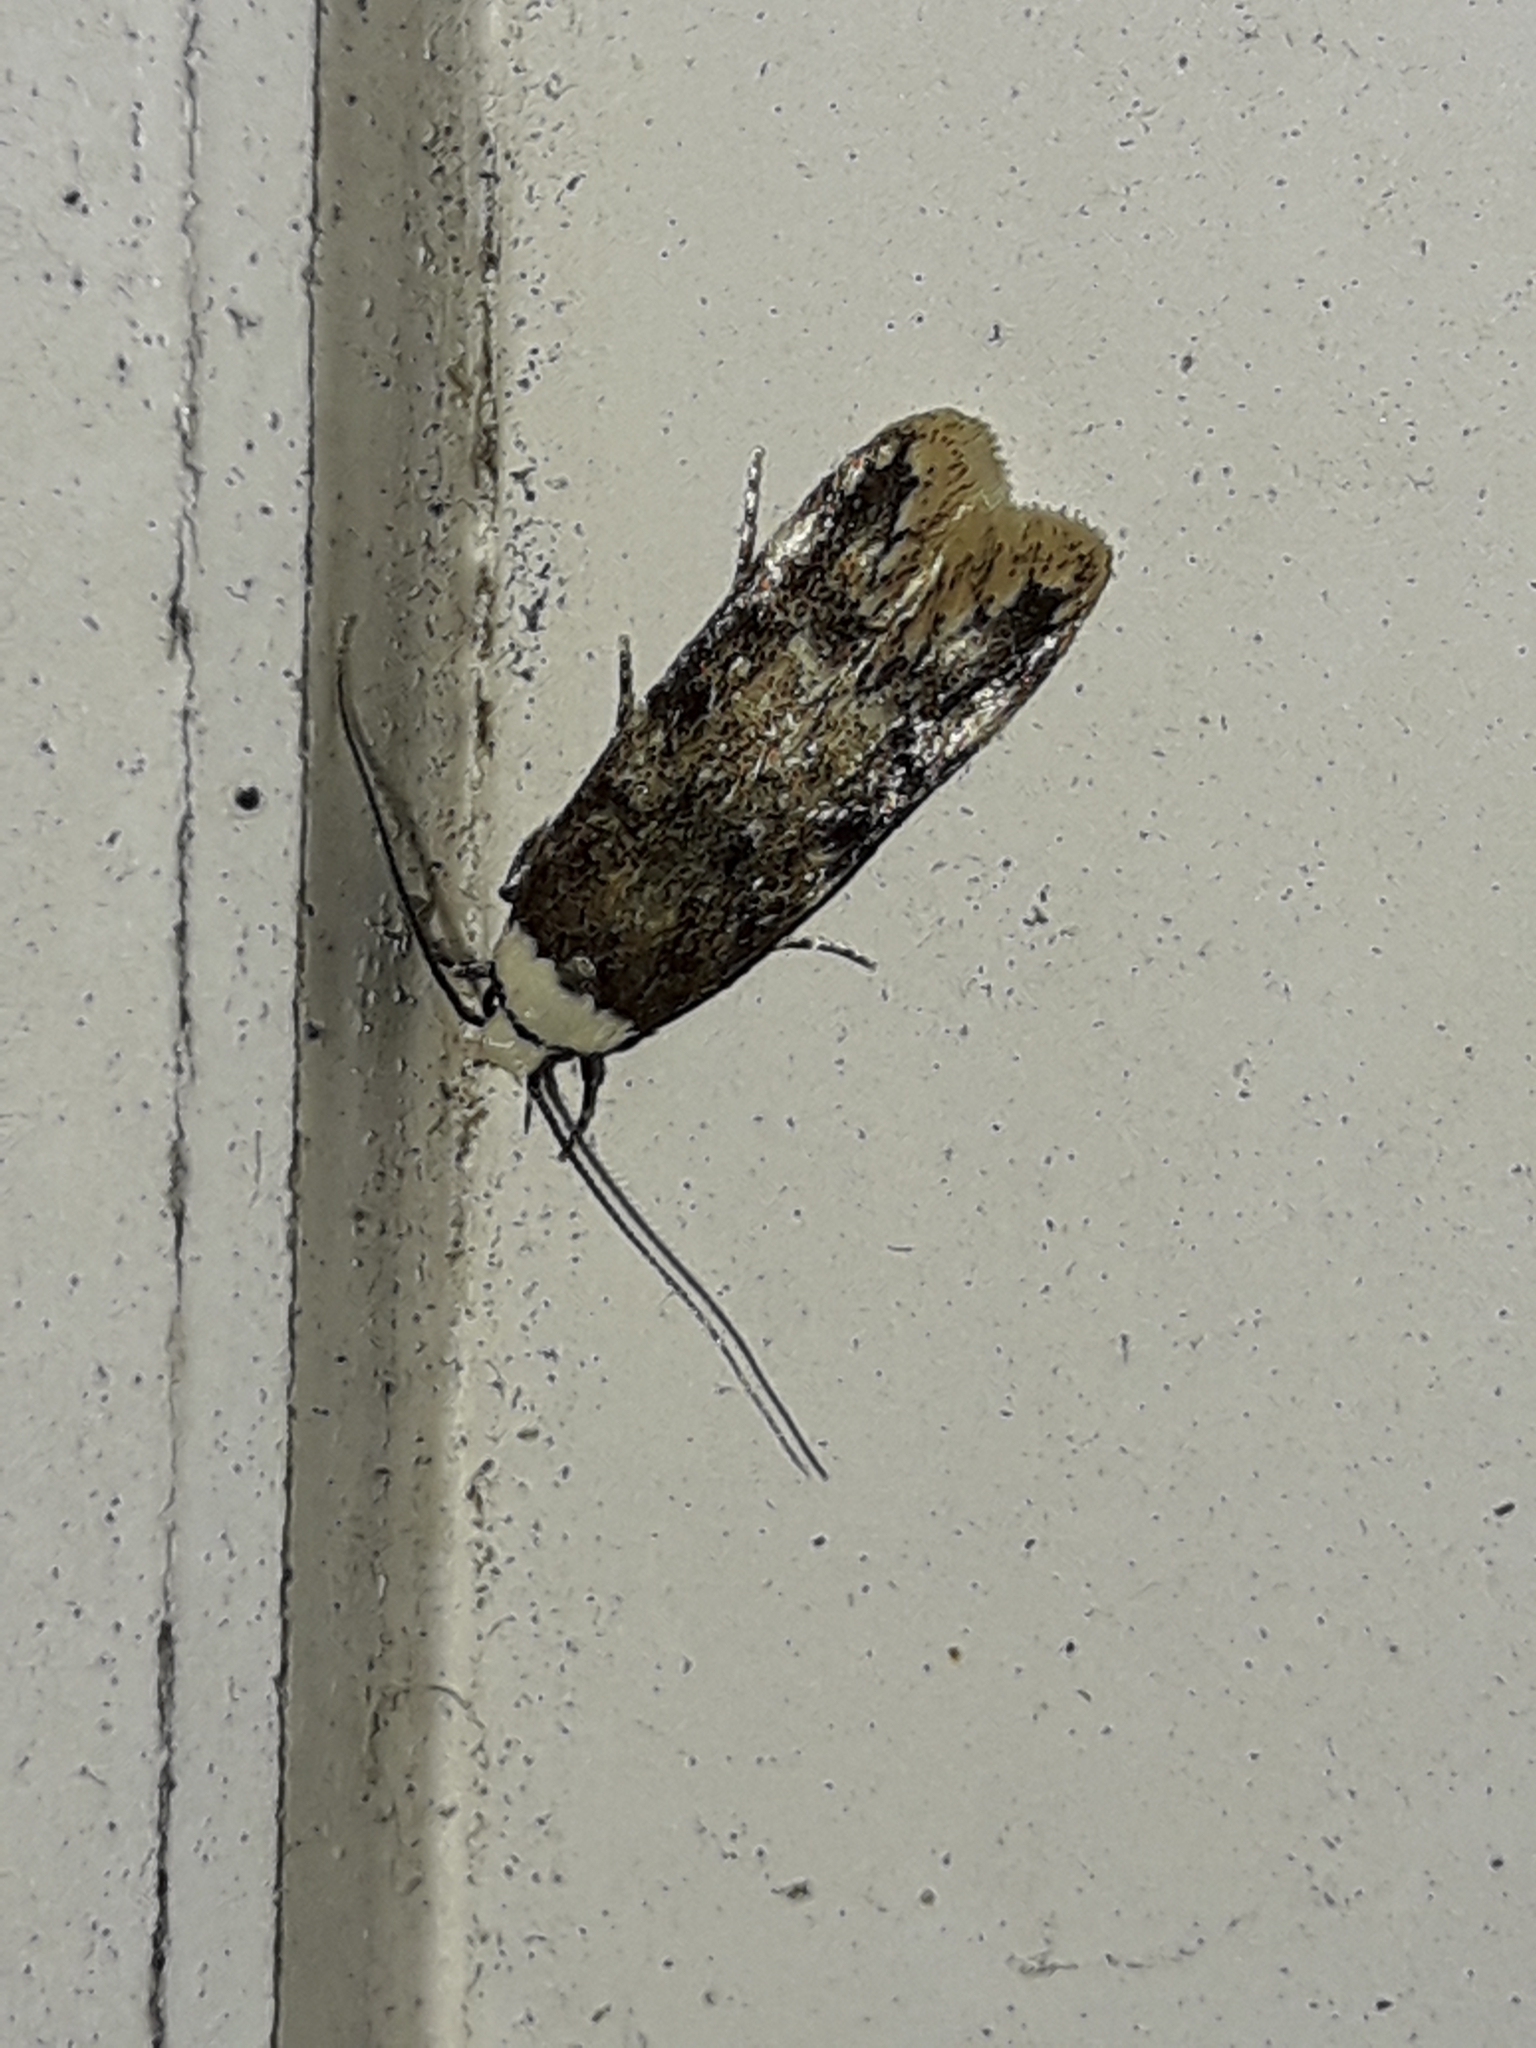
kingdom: Animalia
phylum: Arthropoda
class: Insecta
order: Lepidoptera
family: Oecophoridae
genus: Endrosis
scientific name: Endrosis sarcitrella
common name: White-shouldered house moth
